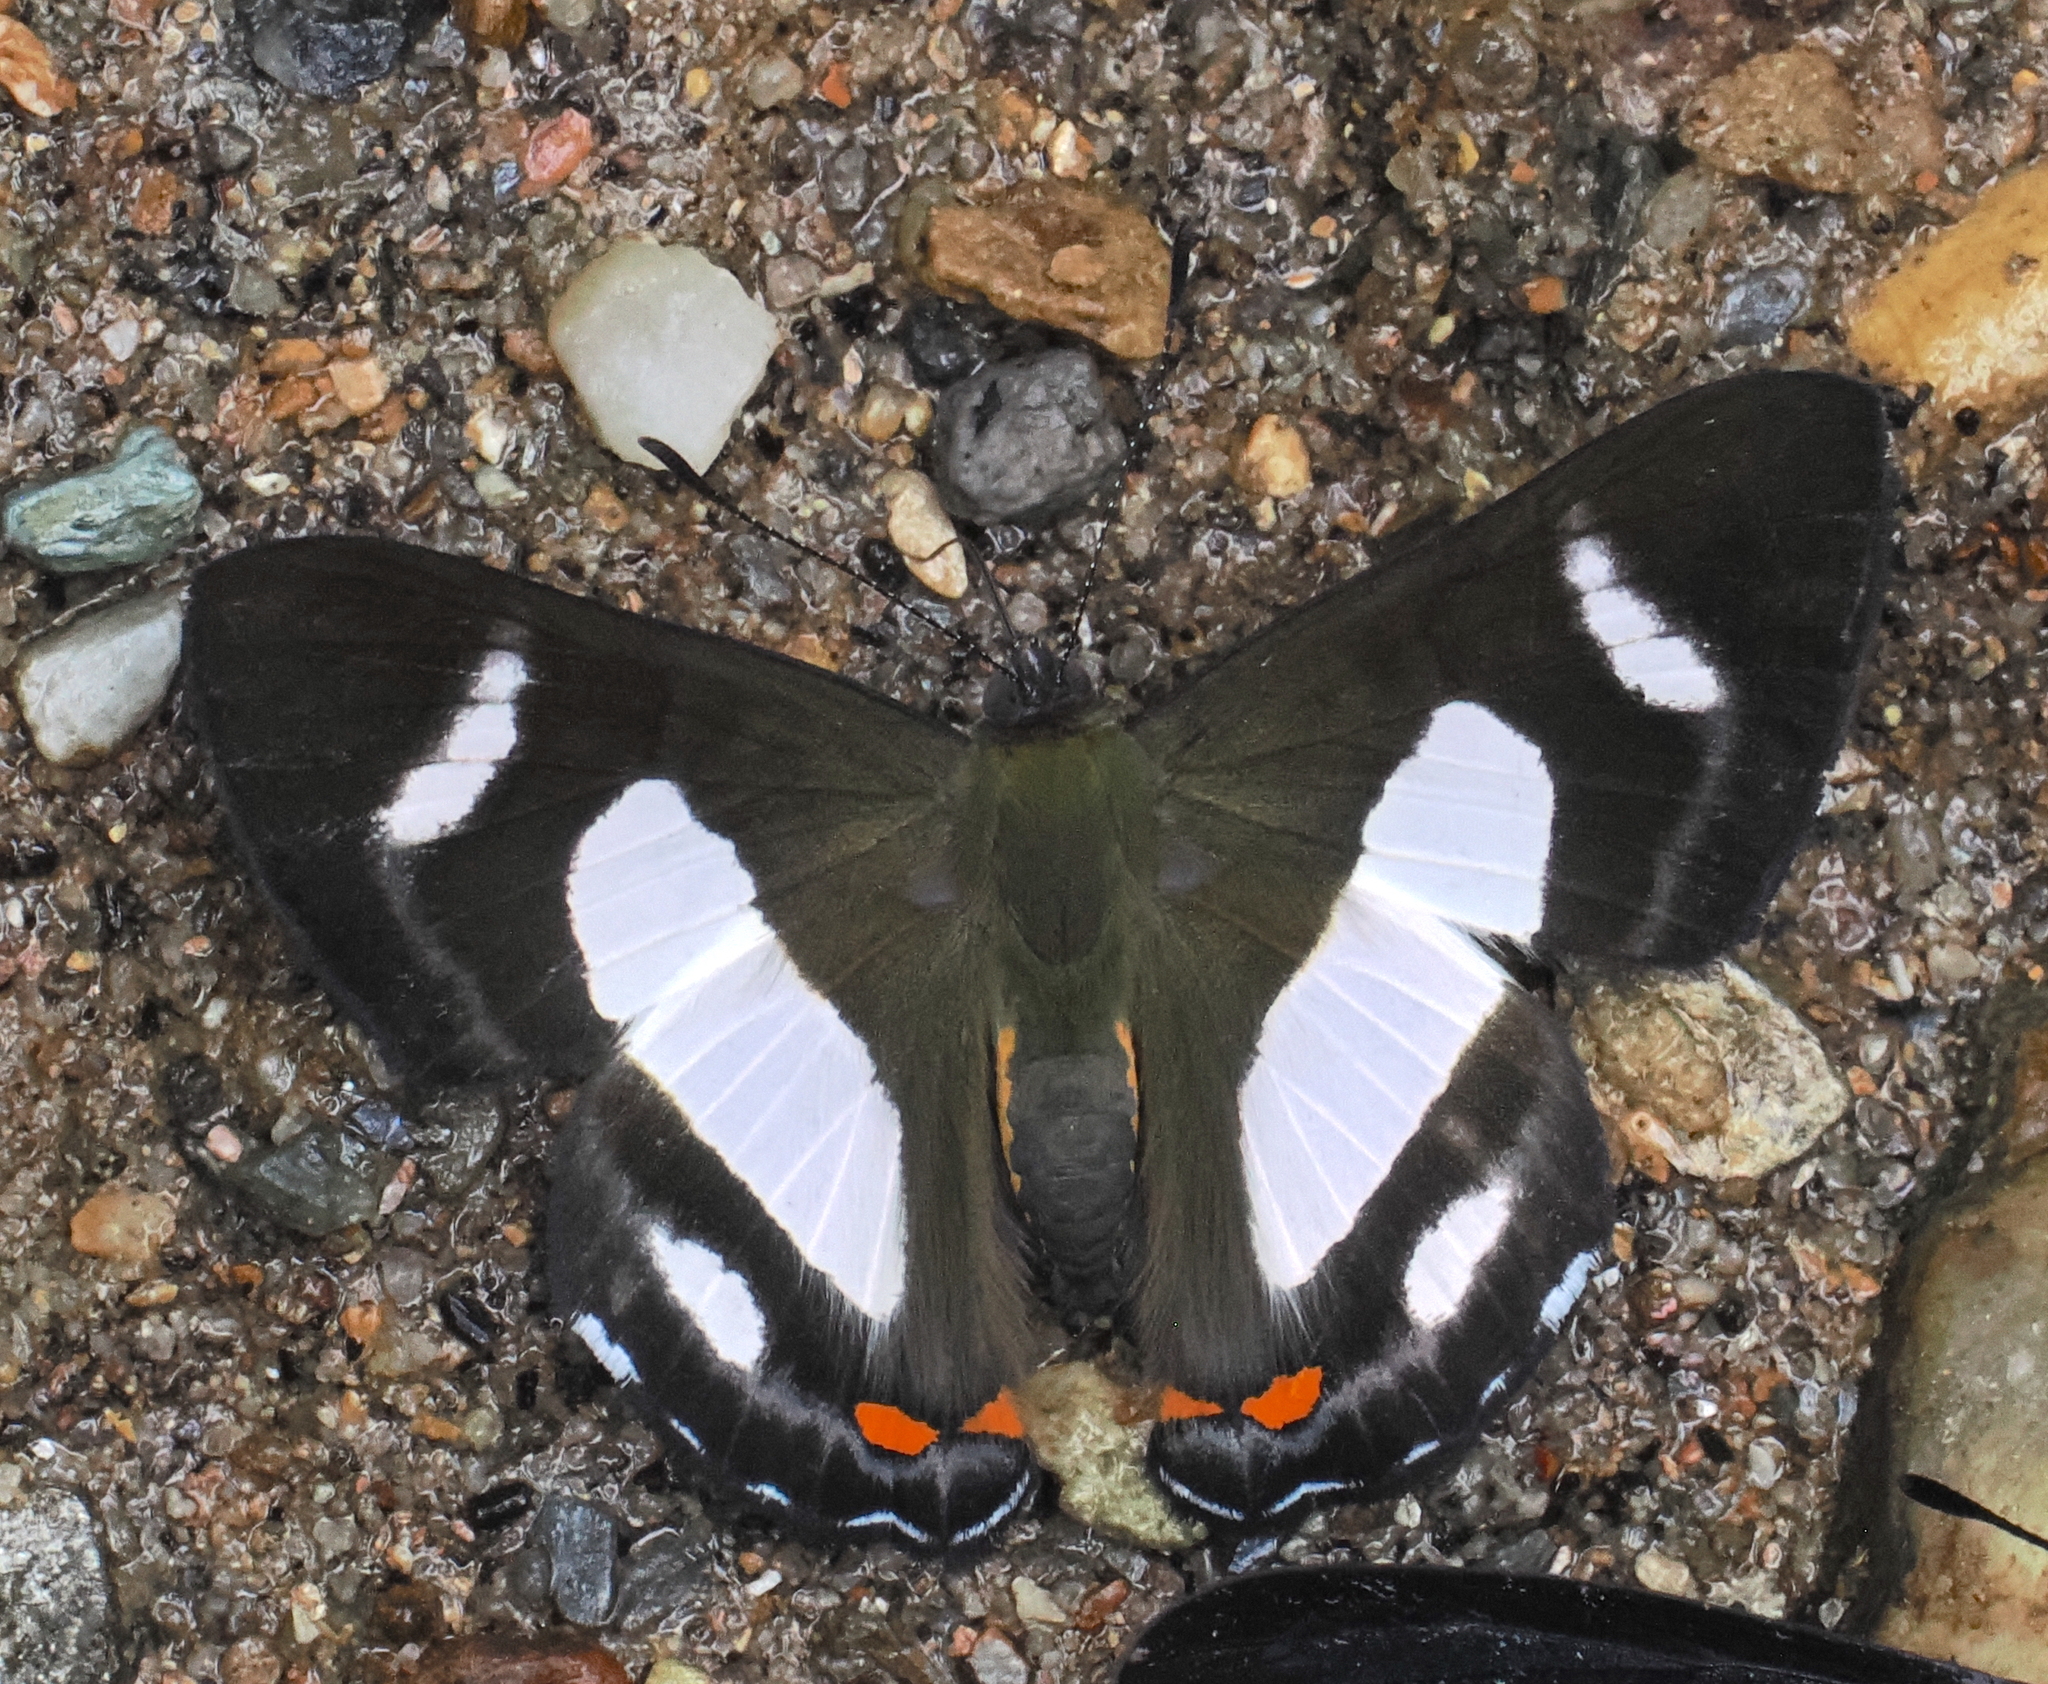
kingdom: Animalia
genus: Siseme
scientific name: Siseme alectryo
